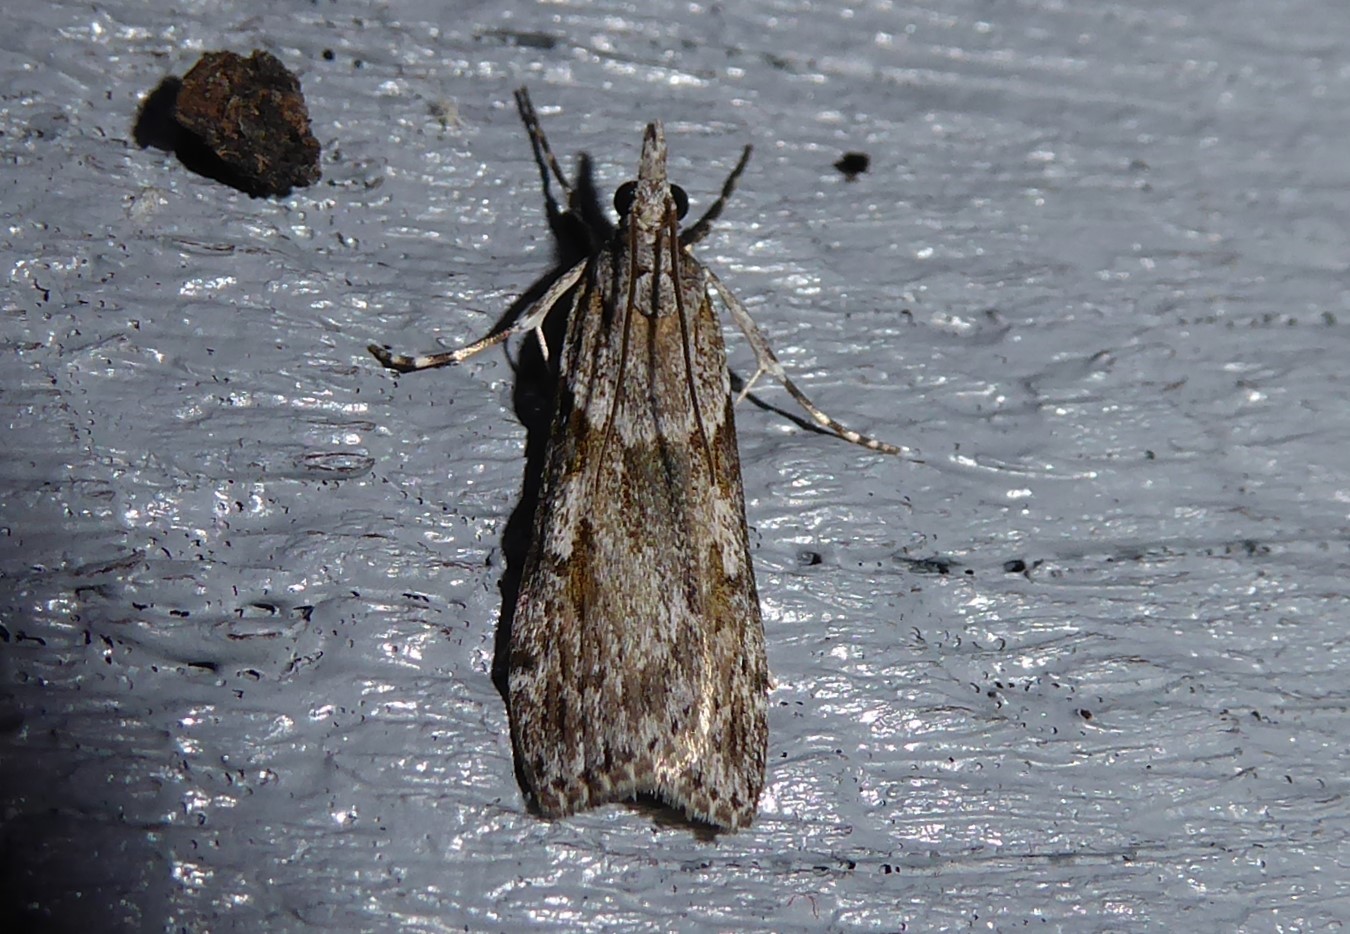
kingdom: Animalia
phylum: Arthropoda
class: Insecta
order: Lepidoptera
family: Crambidae
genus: Scoparia
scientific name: Scoparia halopis
